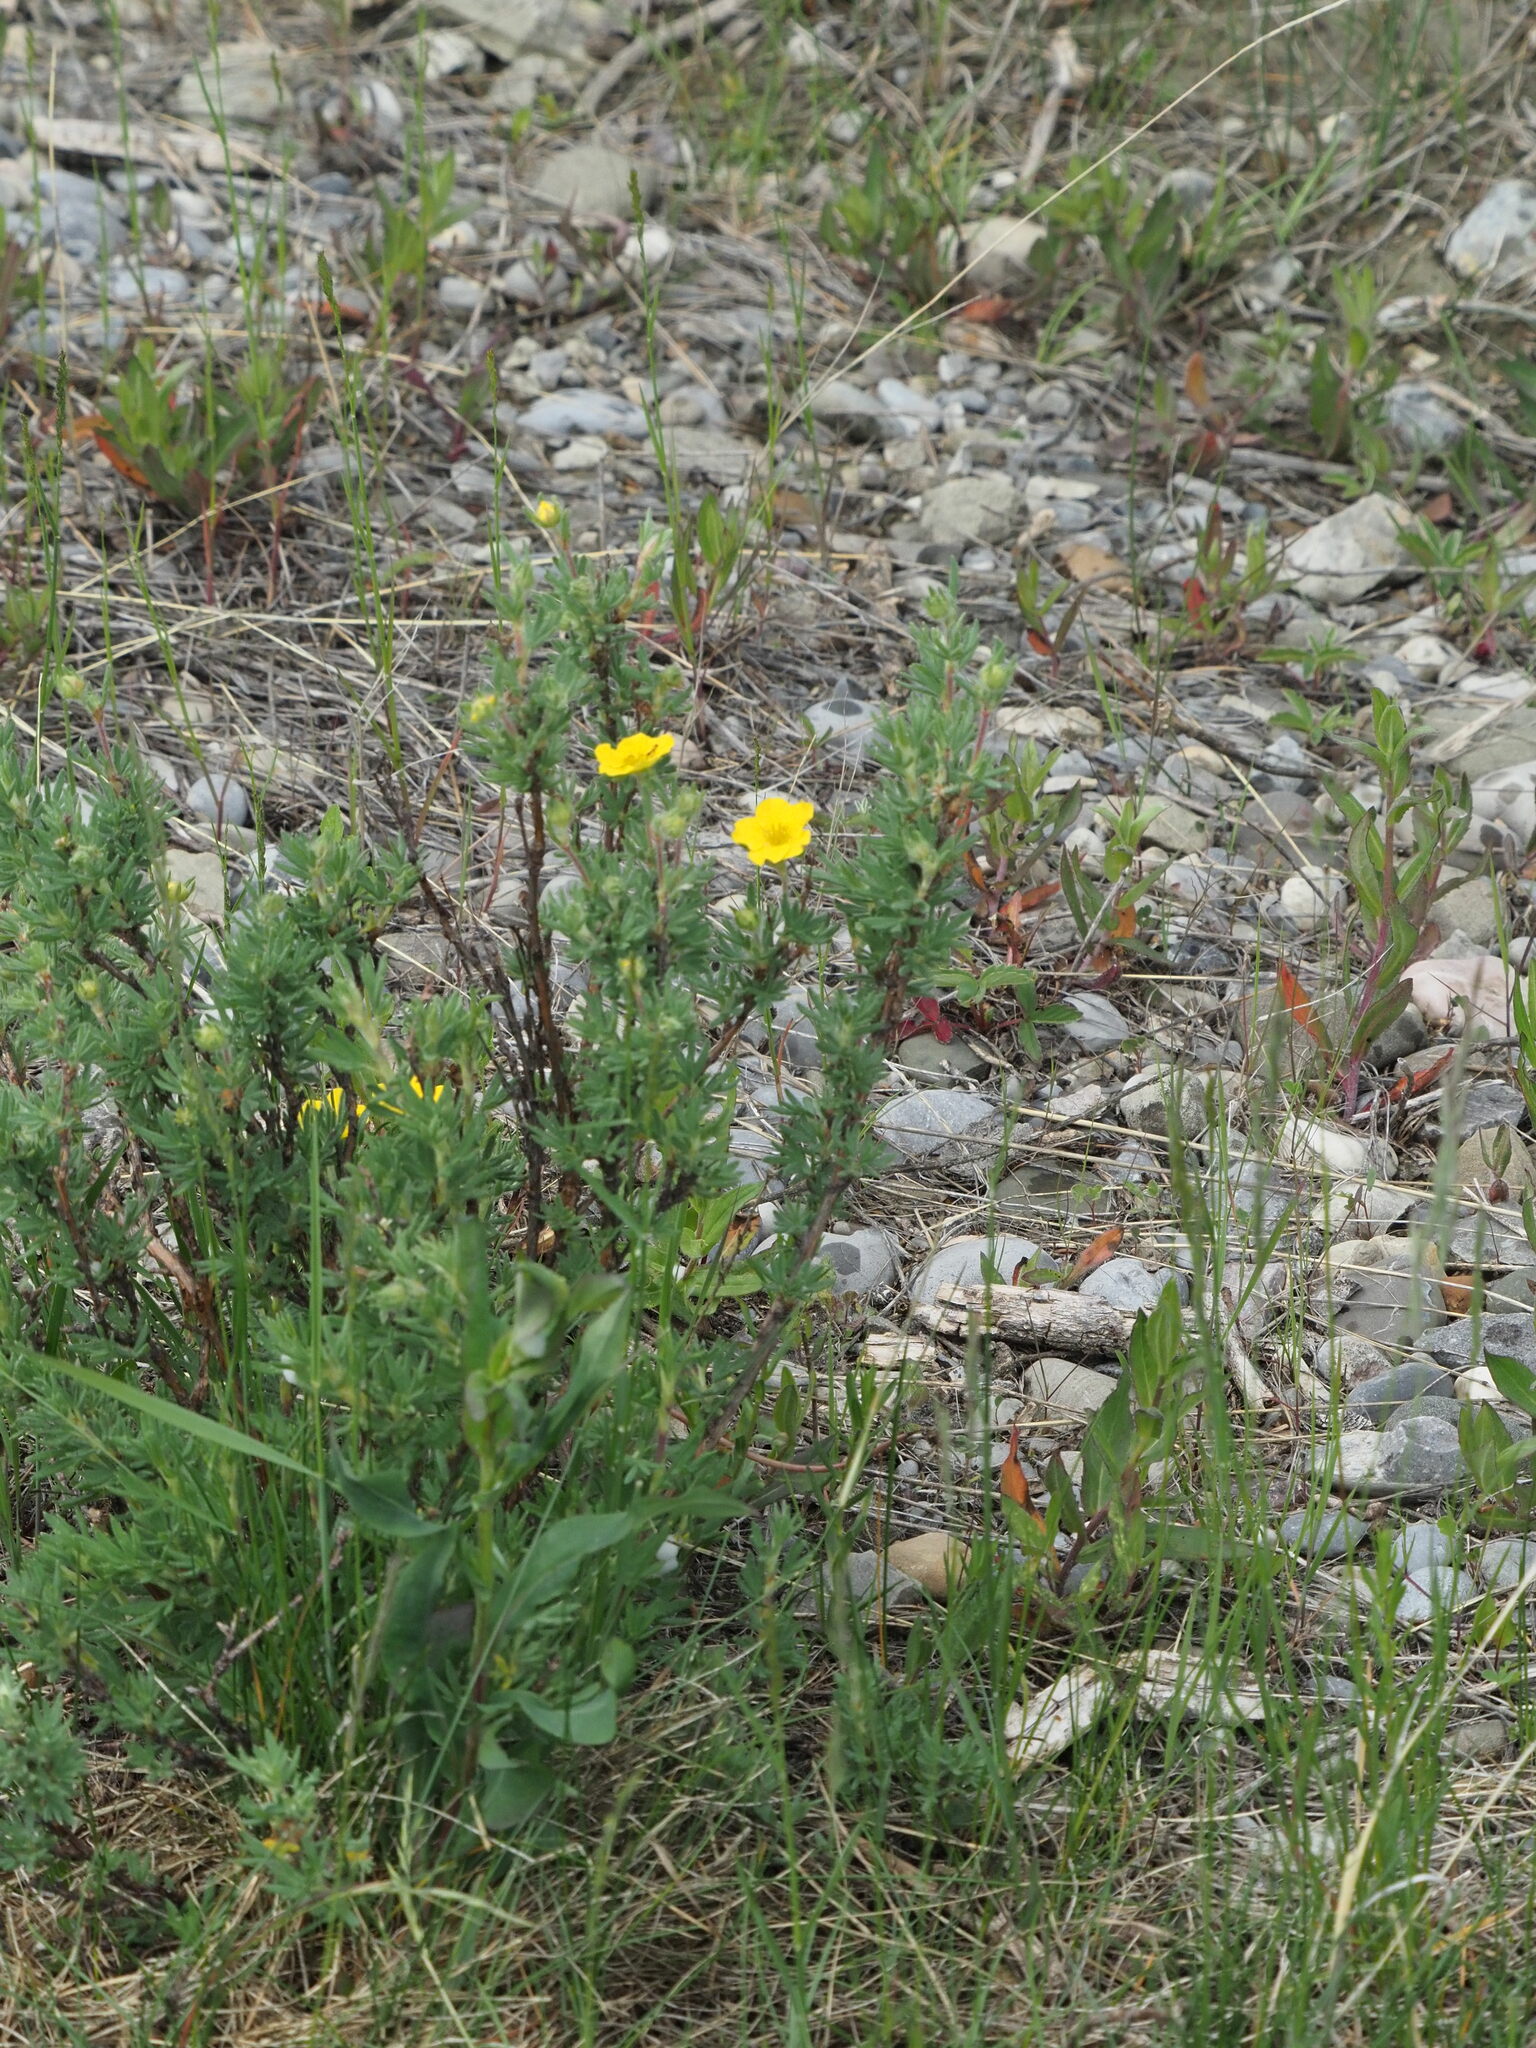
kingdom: Plantae
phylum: Tracheophyta
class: Magnoliopsida
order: Rosales
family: Rosaceae
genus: Dasiphora
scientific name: Dasiphora fruticosa
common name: Shrubby cinquefoil
